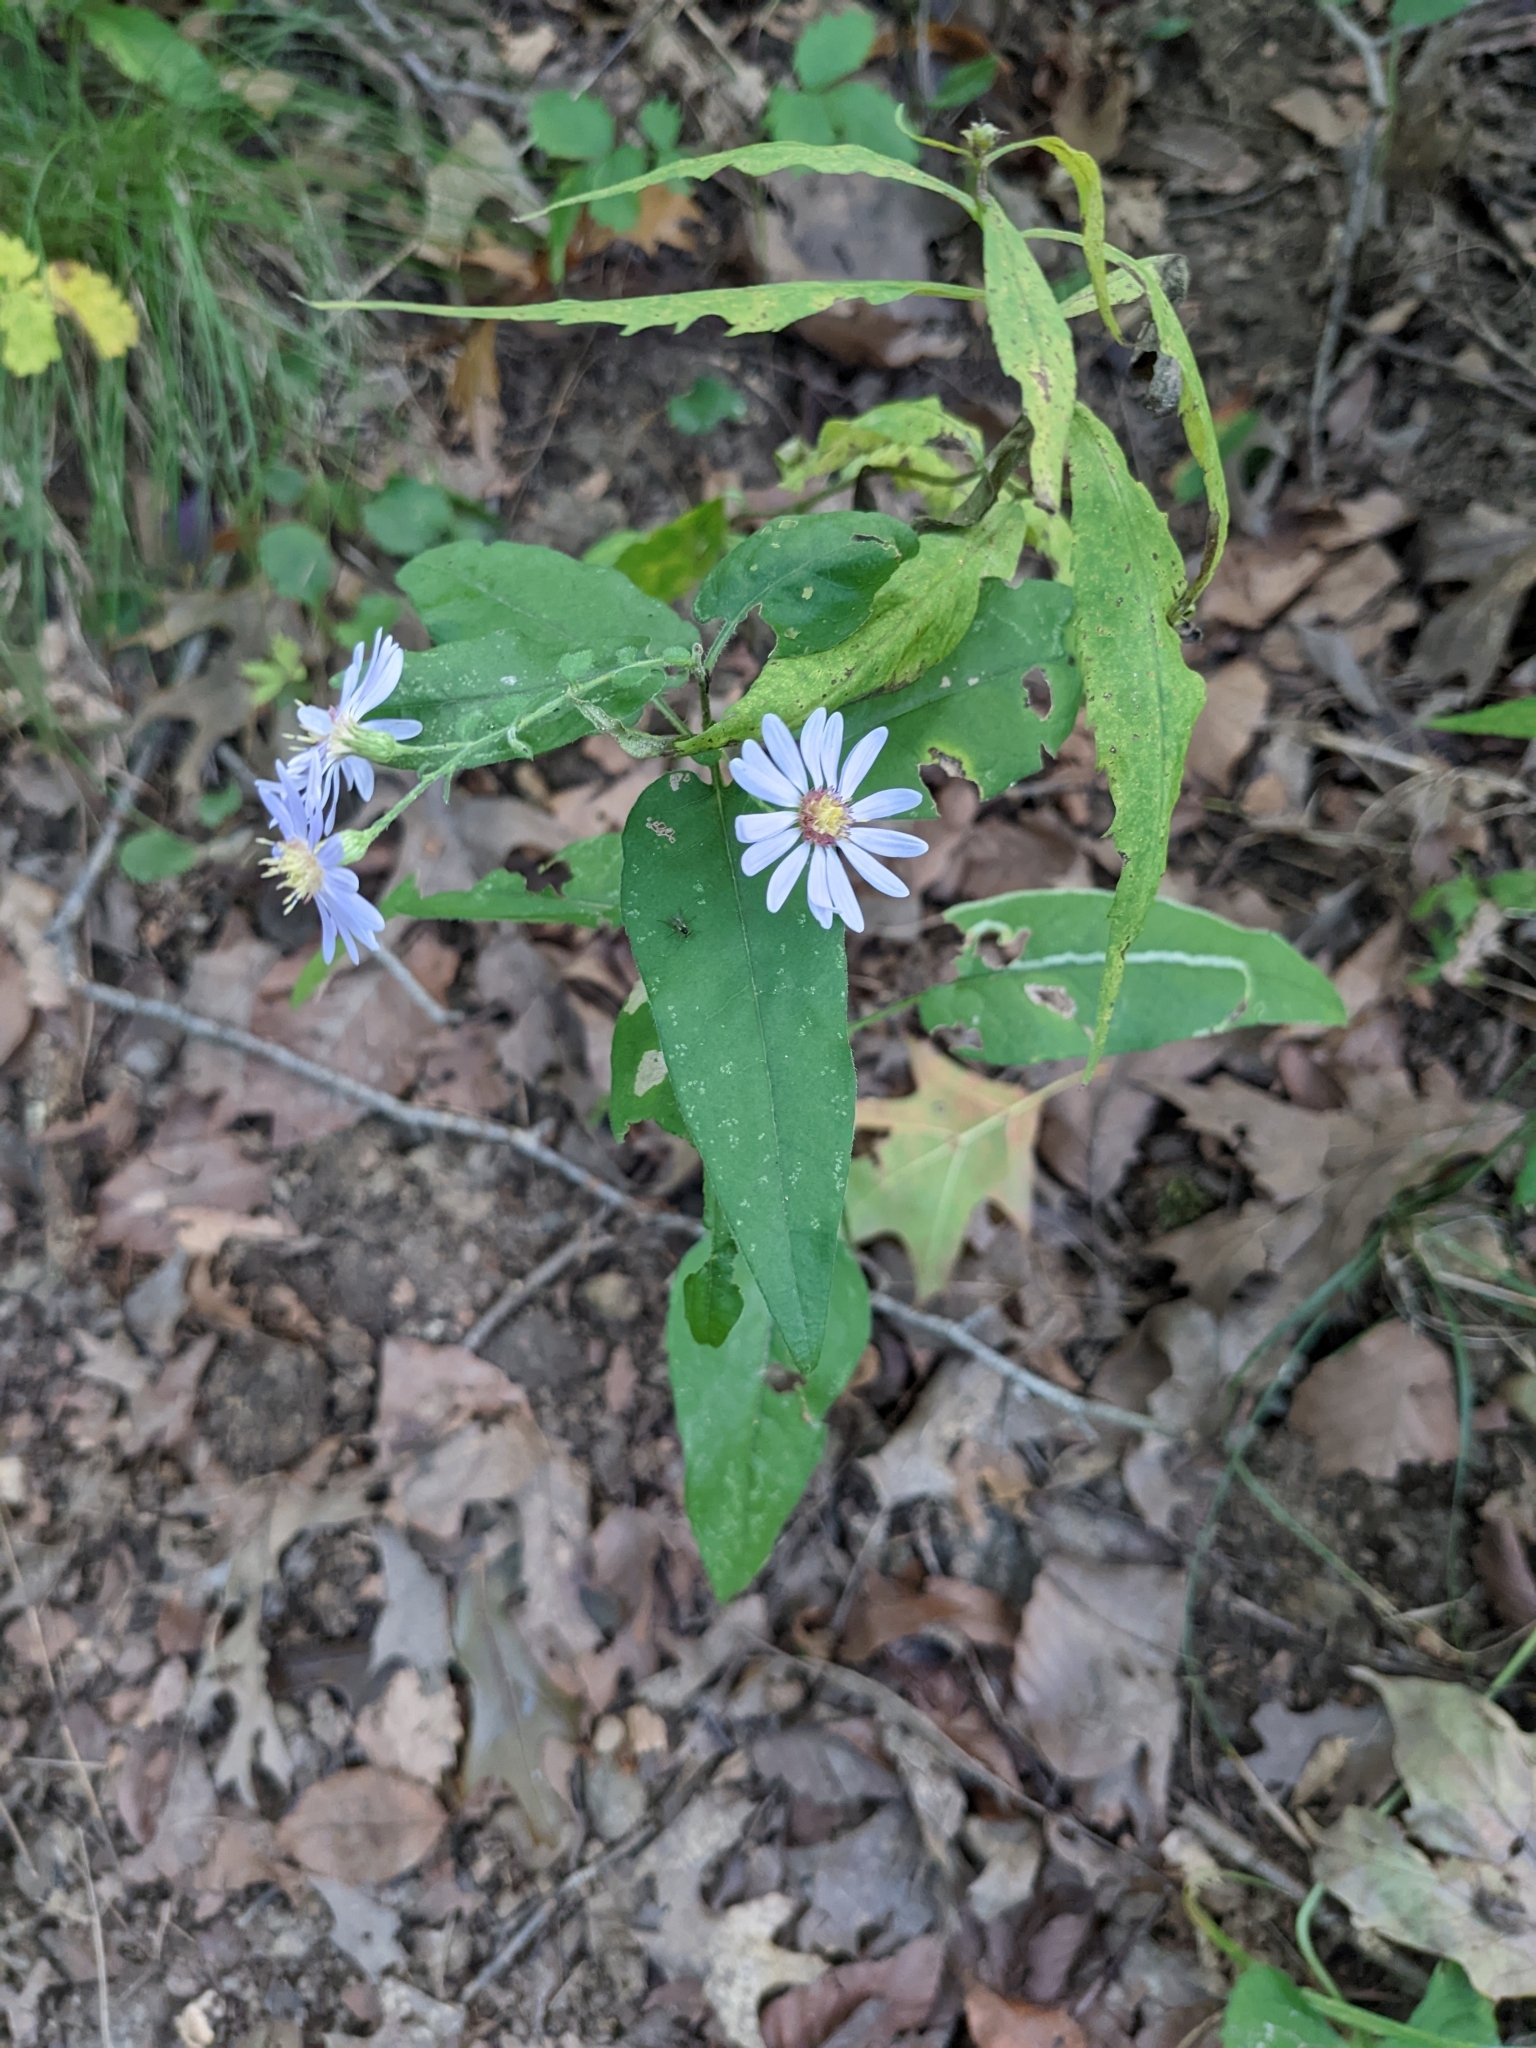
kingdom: Plantae
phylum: Tracheophyta
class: Magnoliopsida
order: Asterales
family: Asteraceae
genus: Symphyotrichum
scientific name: Symphyotrichum shortii
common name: Short's aster
